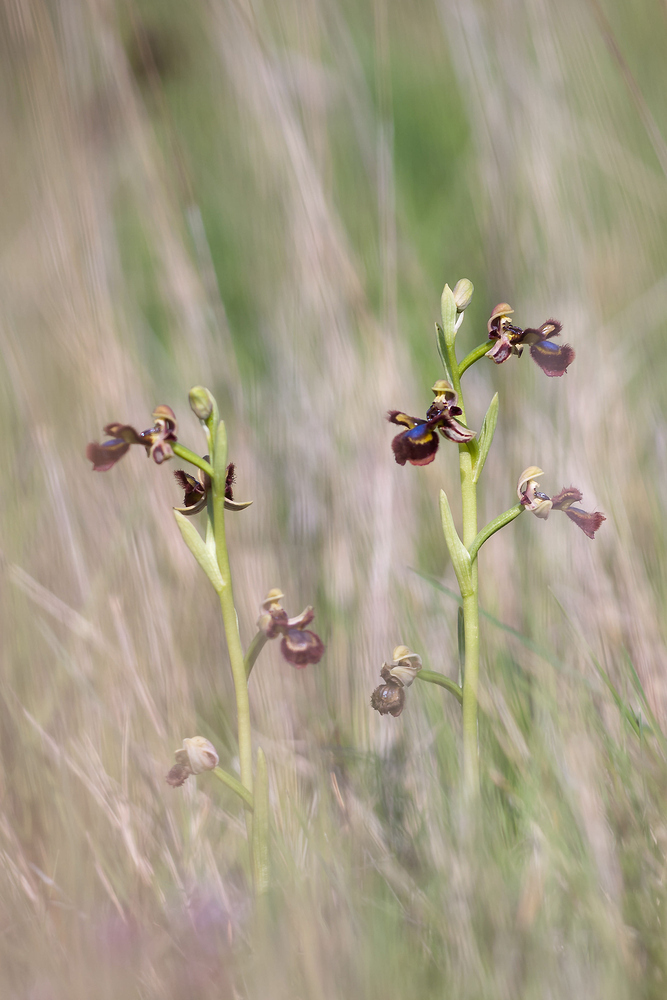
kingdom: Plantae
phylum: Tracheophyta
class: Liliopsida
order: Asparagales
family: Orchidaceae
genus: Ophrys
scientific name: Ophrys speculum
